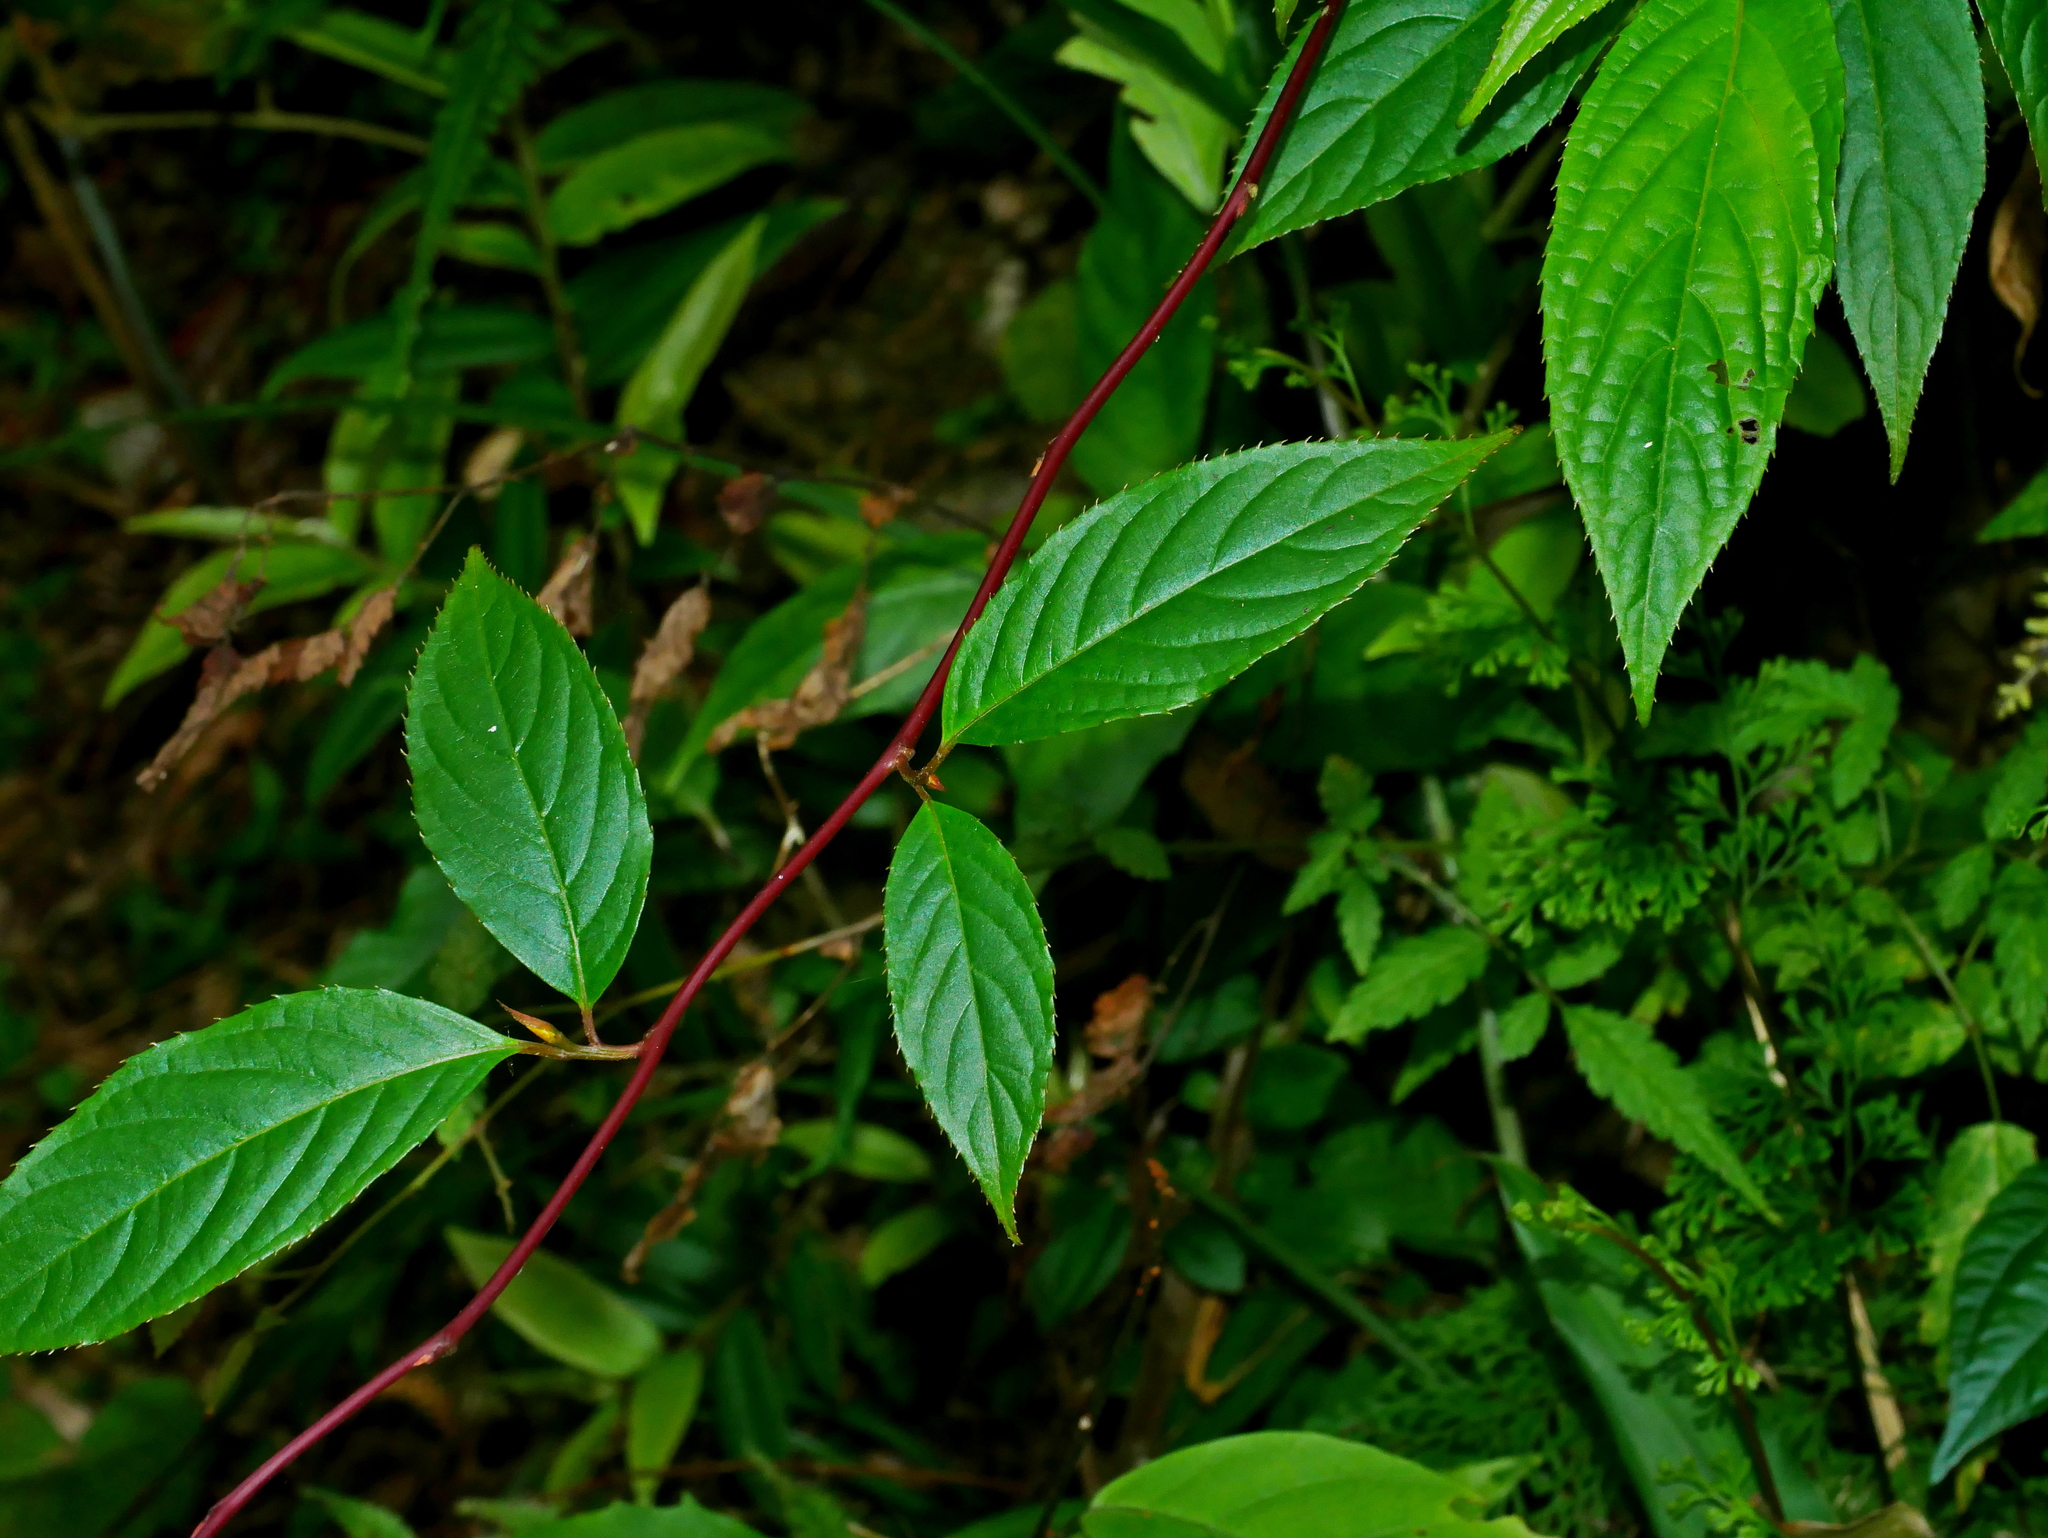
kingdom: Plantae
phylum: Tracheophyta
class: Magnoliopsida
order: Huerteales
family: Dipentodontaceae
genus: Perrottetia
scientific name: Perrottetia arisanensis
